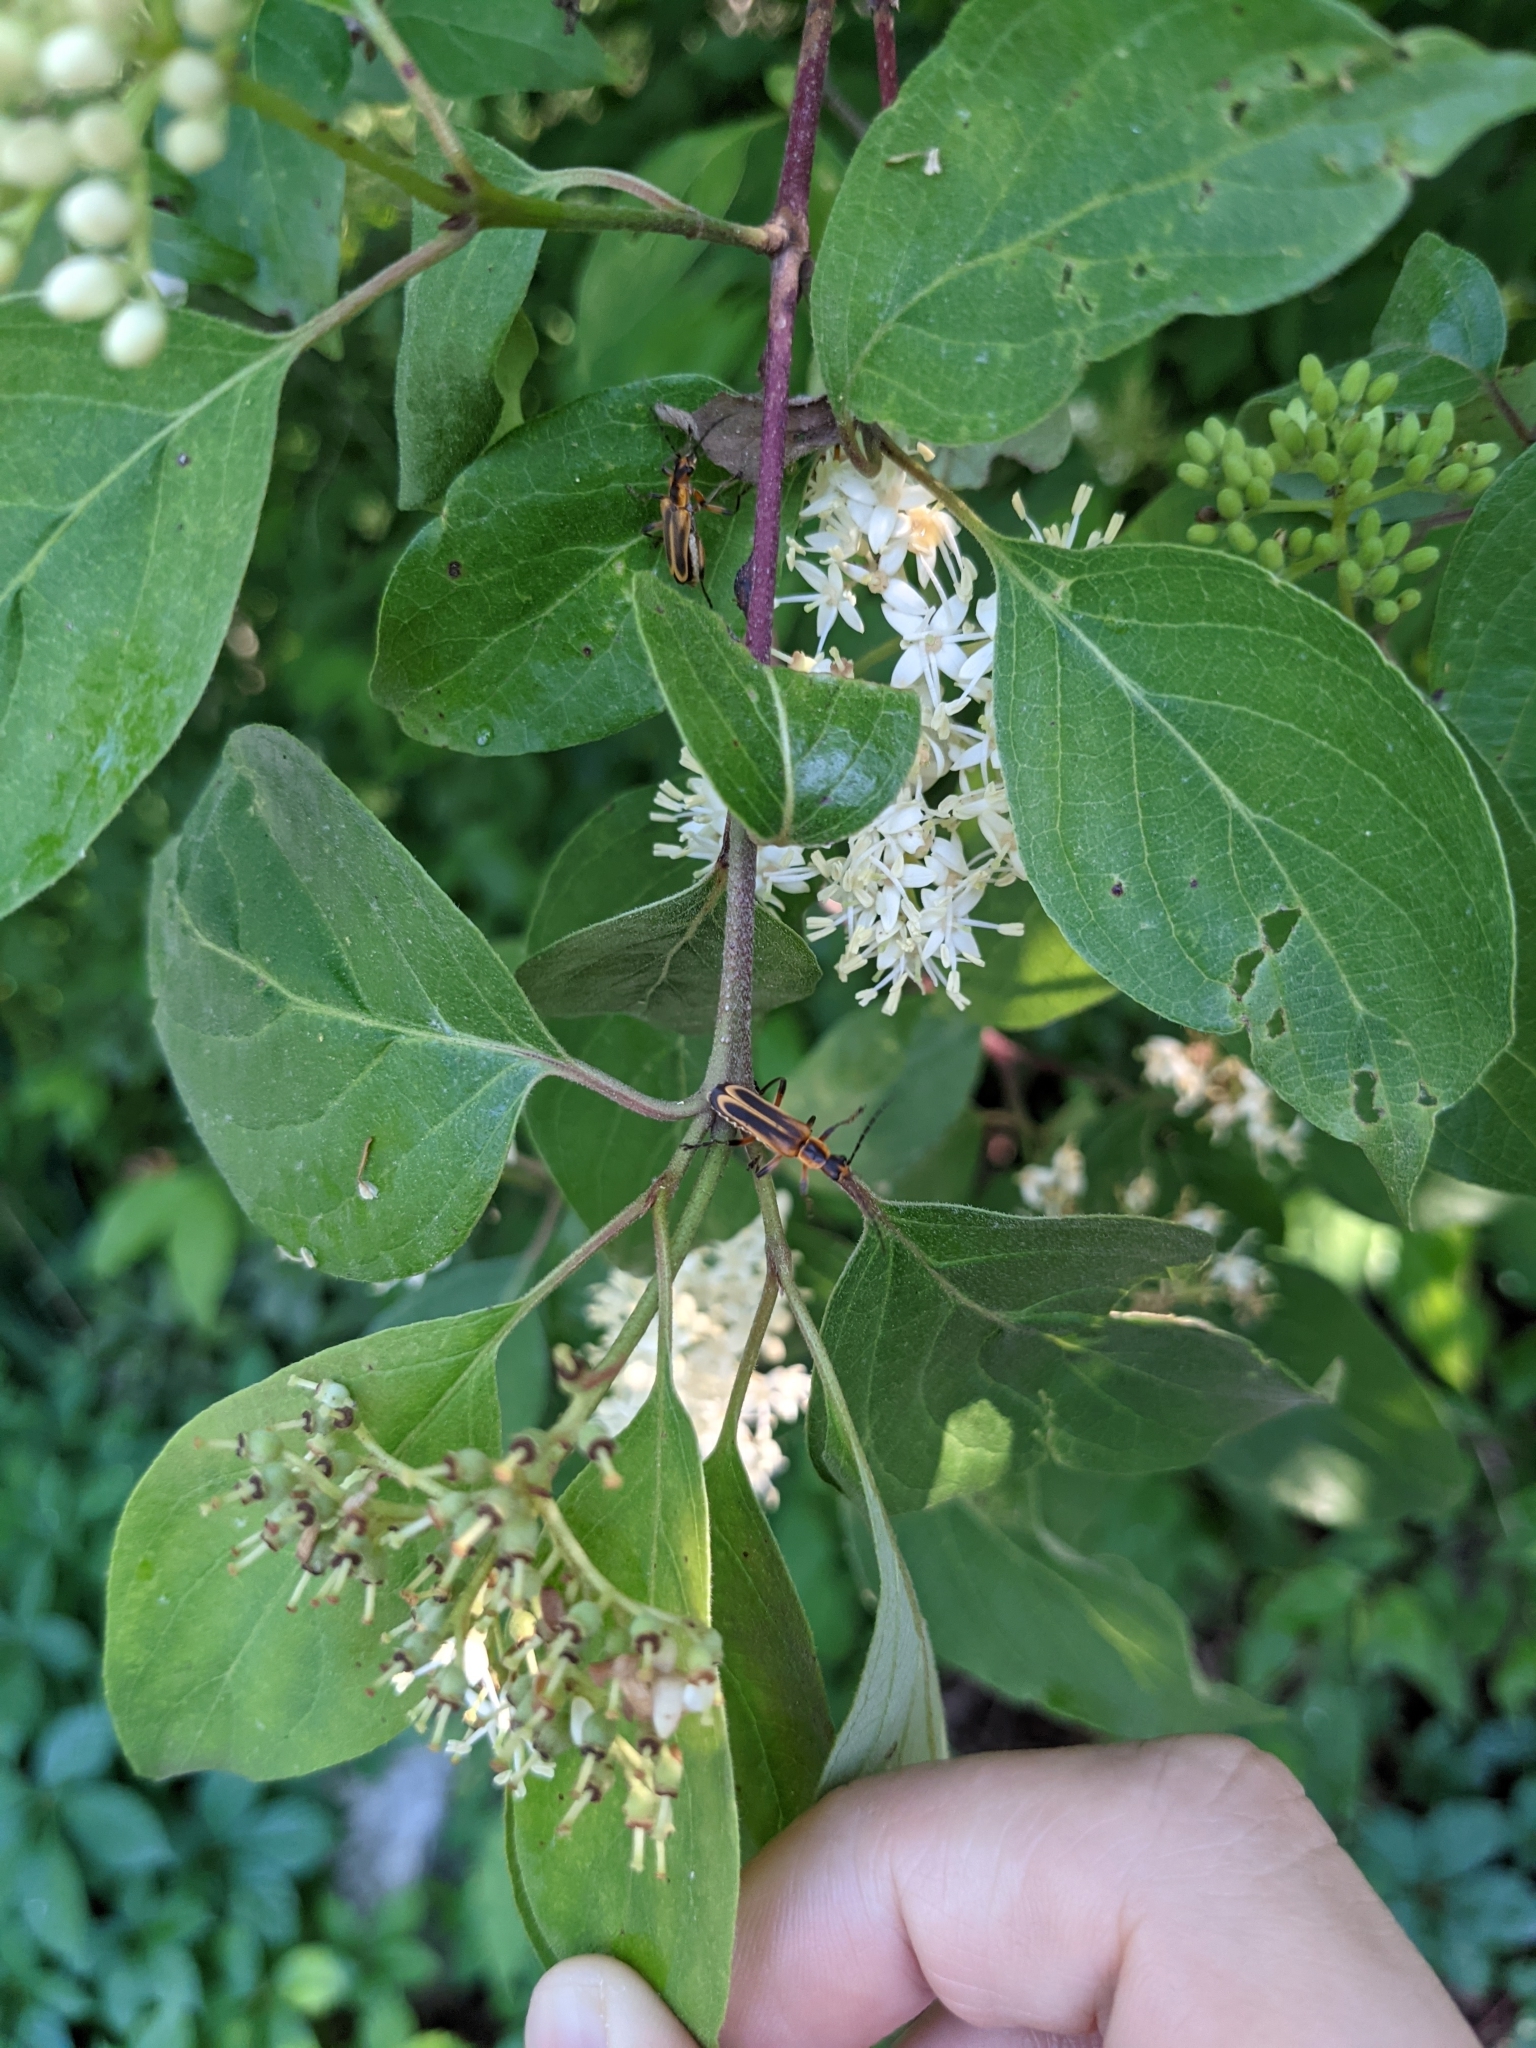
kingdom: Animalia
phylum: Arthropoda
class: Insecta
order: Coleoptera
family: Cantharidae
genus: Chauliognathus
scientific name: Chauliognathus marginatus
